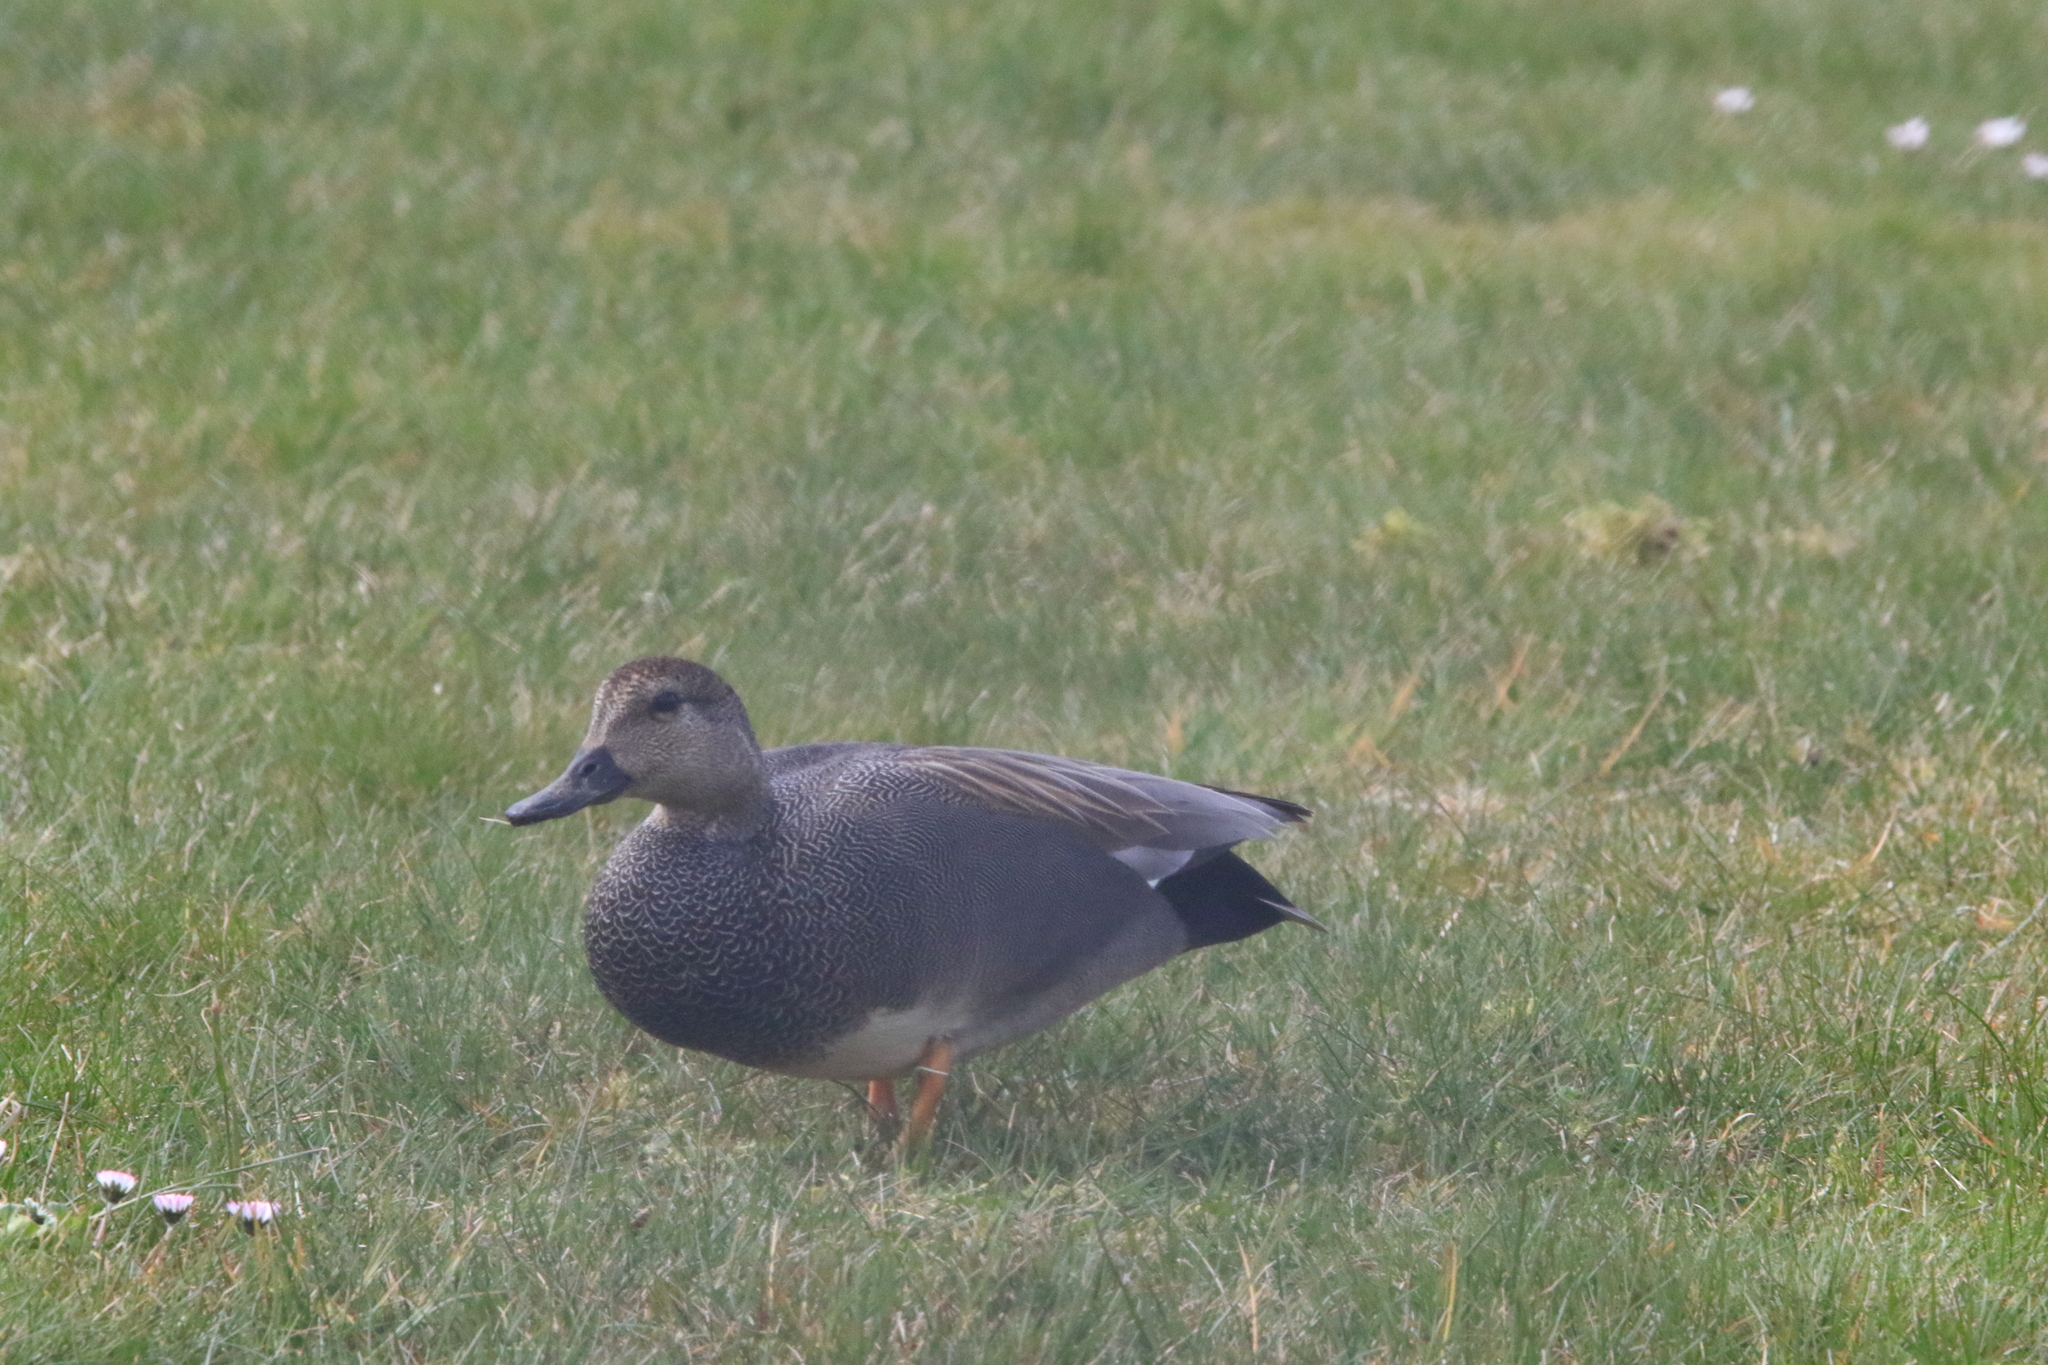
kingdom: Animalia
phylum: Chordata
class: Aves
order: Anseriformes
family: Anatidae
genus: Mareca
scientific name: Mareca strepera
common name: Gadwall
